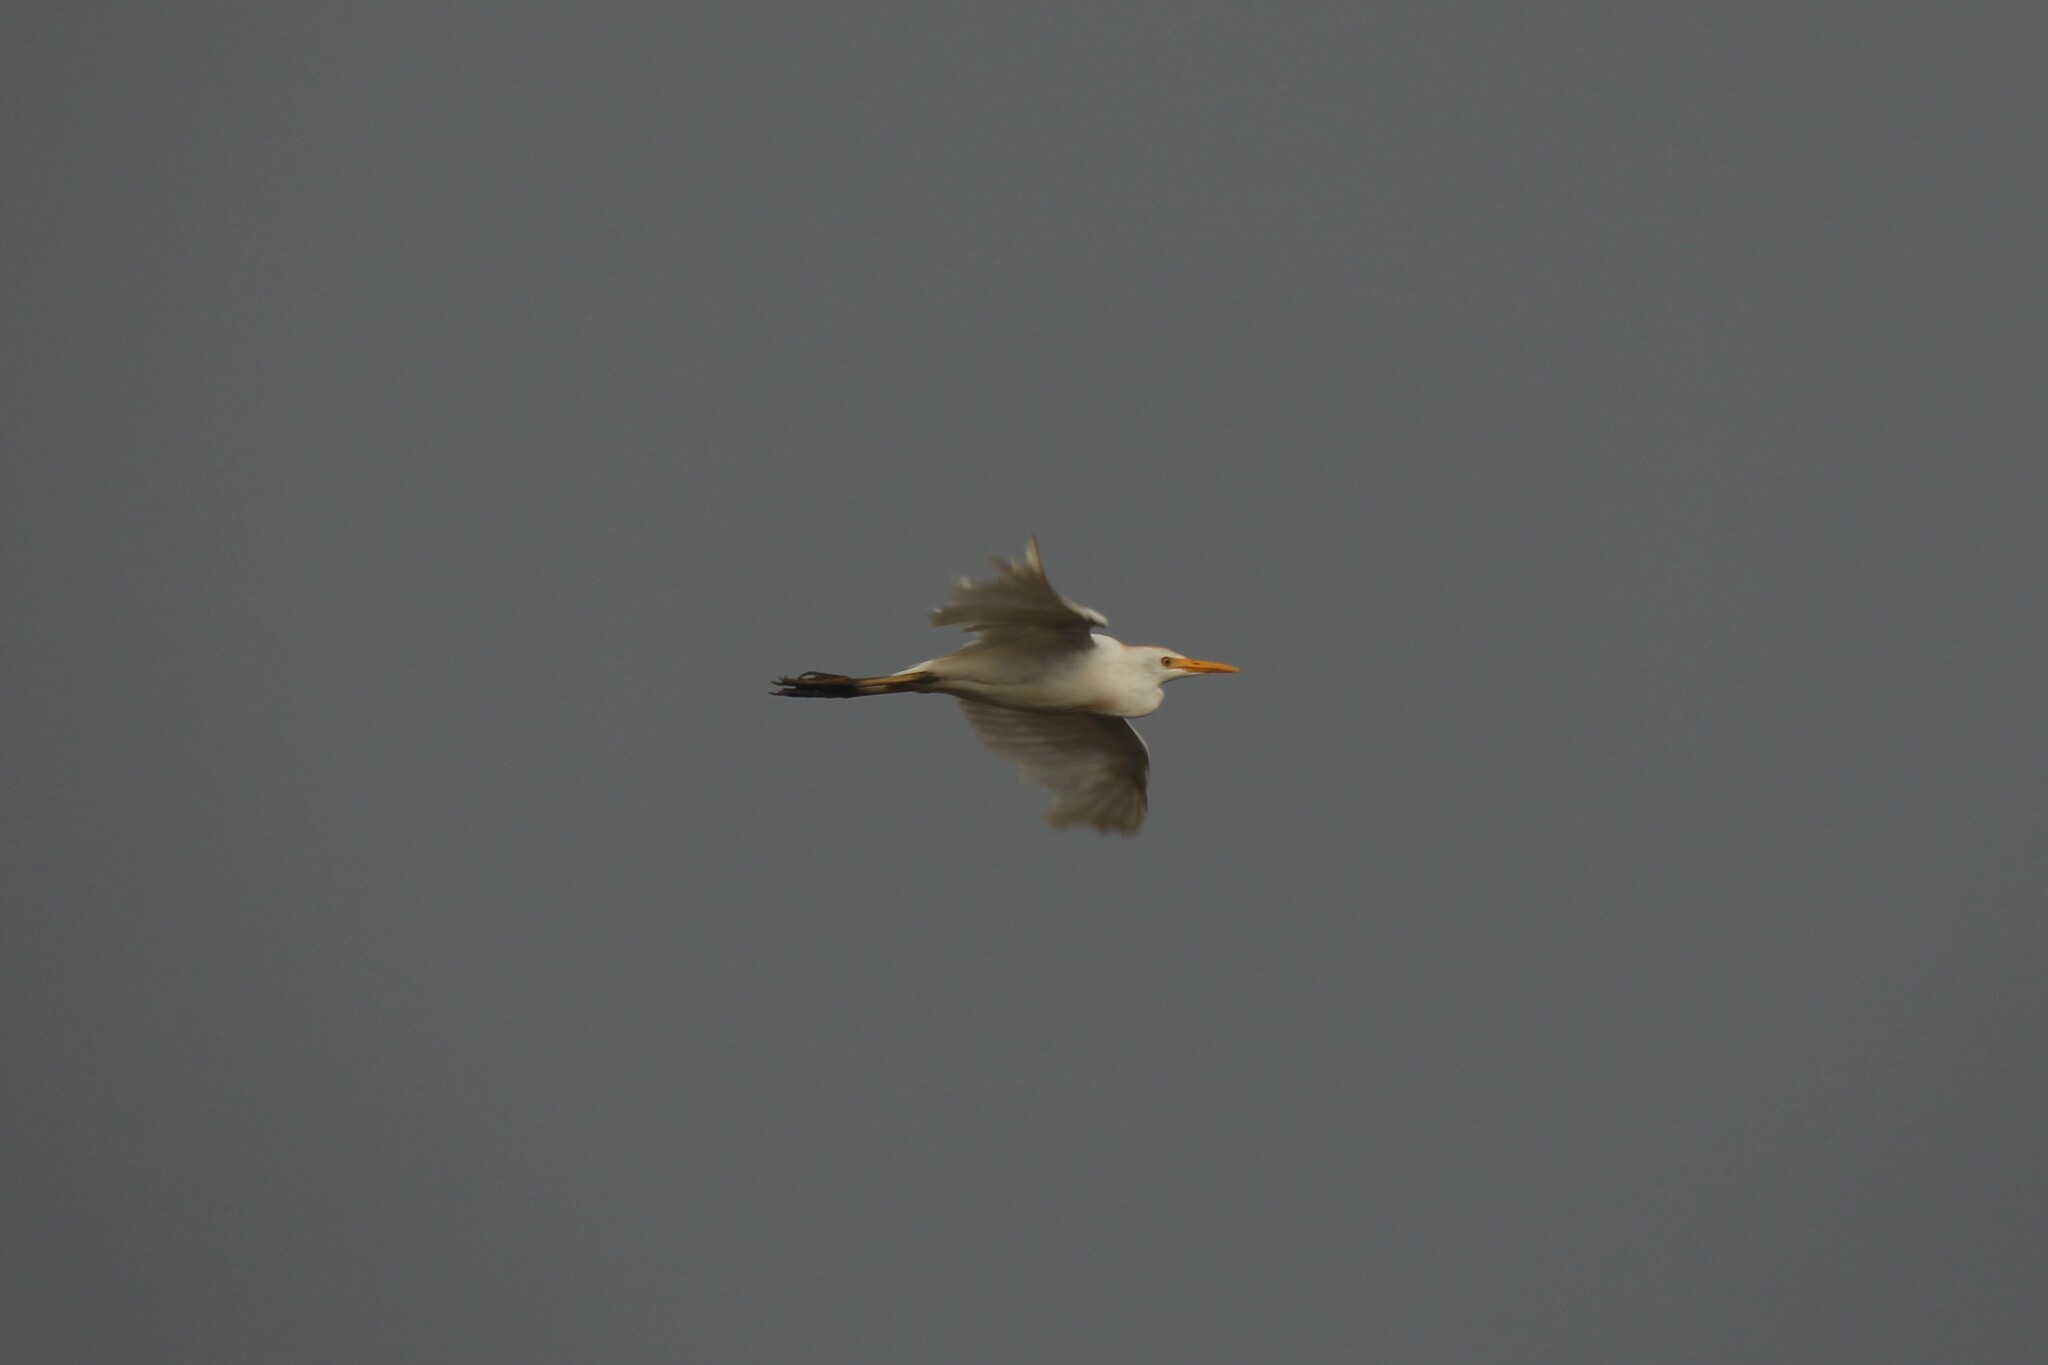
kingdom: Animalia
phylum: Chordata
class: Aves
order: Pelecaniformes
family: Ardeidae
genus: Bubulcus
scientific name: Bubulcus ibis
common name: Cattle egret
